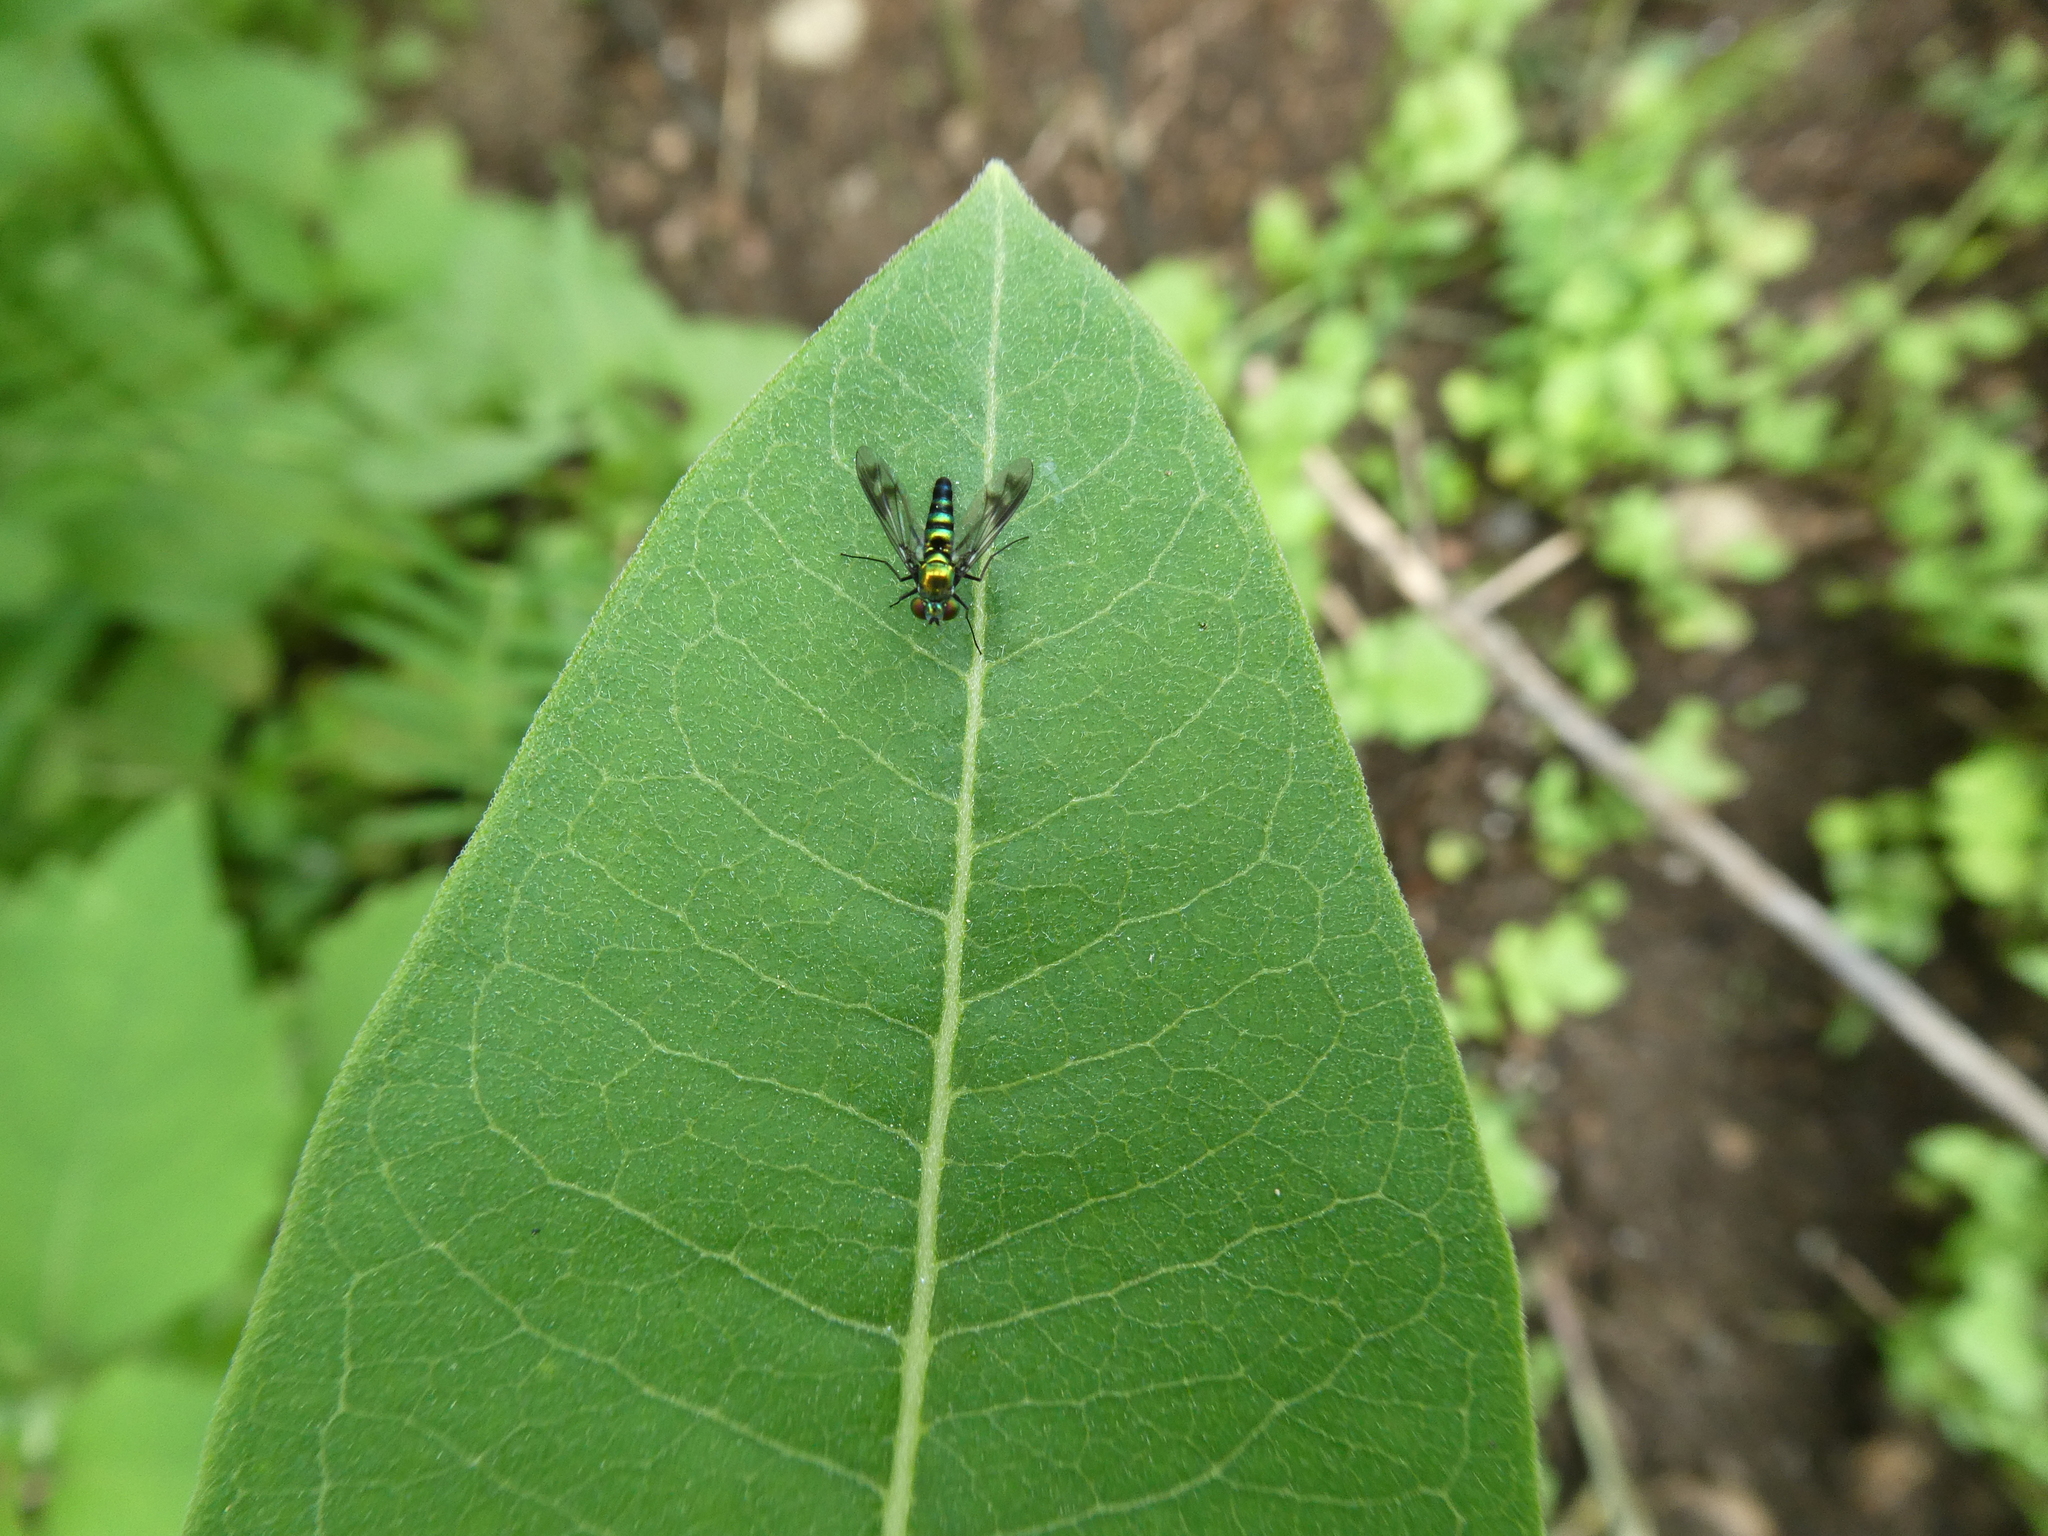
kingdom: Animalia
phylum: Arthropoda
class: Insecta
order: Diptera
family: Dolichopodidae
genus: Condylostylus
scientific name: Condylostylus patibulatus
